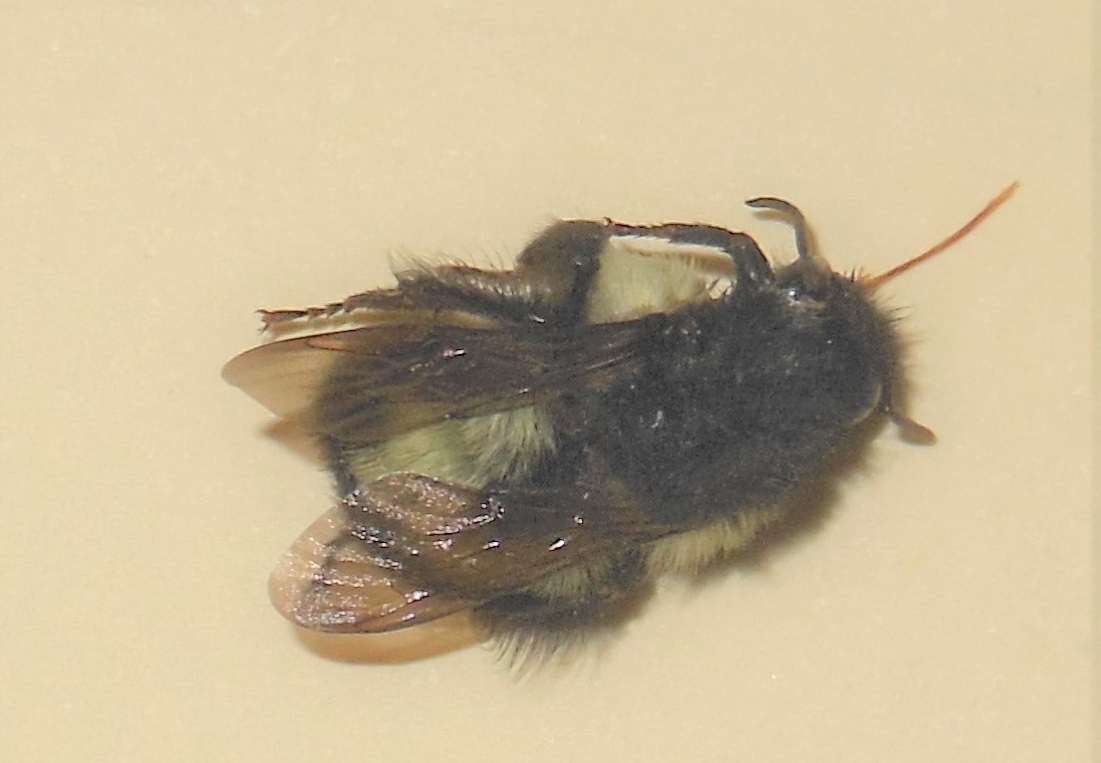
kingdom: Animalia
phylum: Arthropoda
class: Insecta
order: Hymenoptera
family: Apidae
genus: Bombus
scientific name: Bombus ephippiatus
